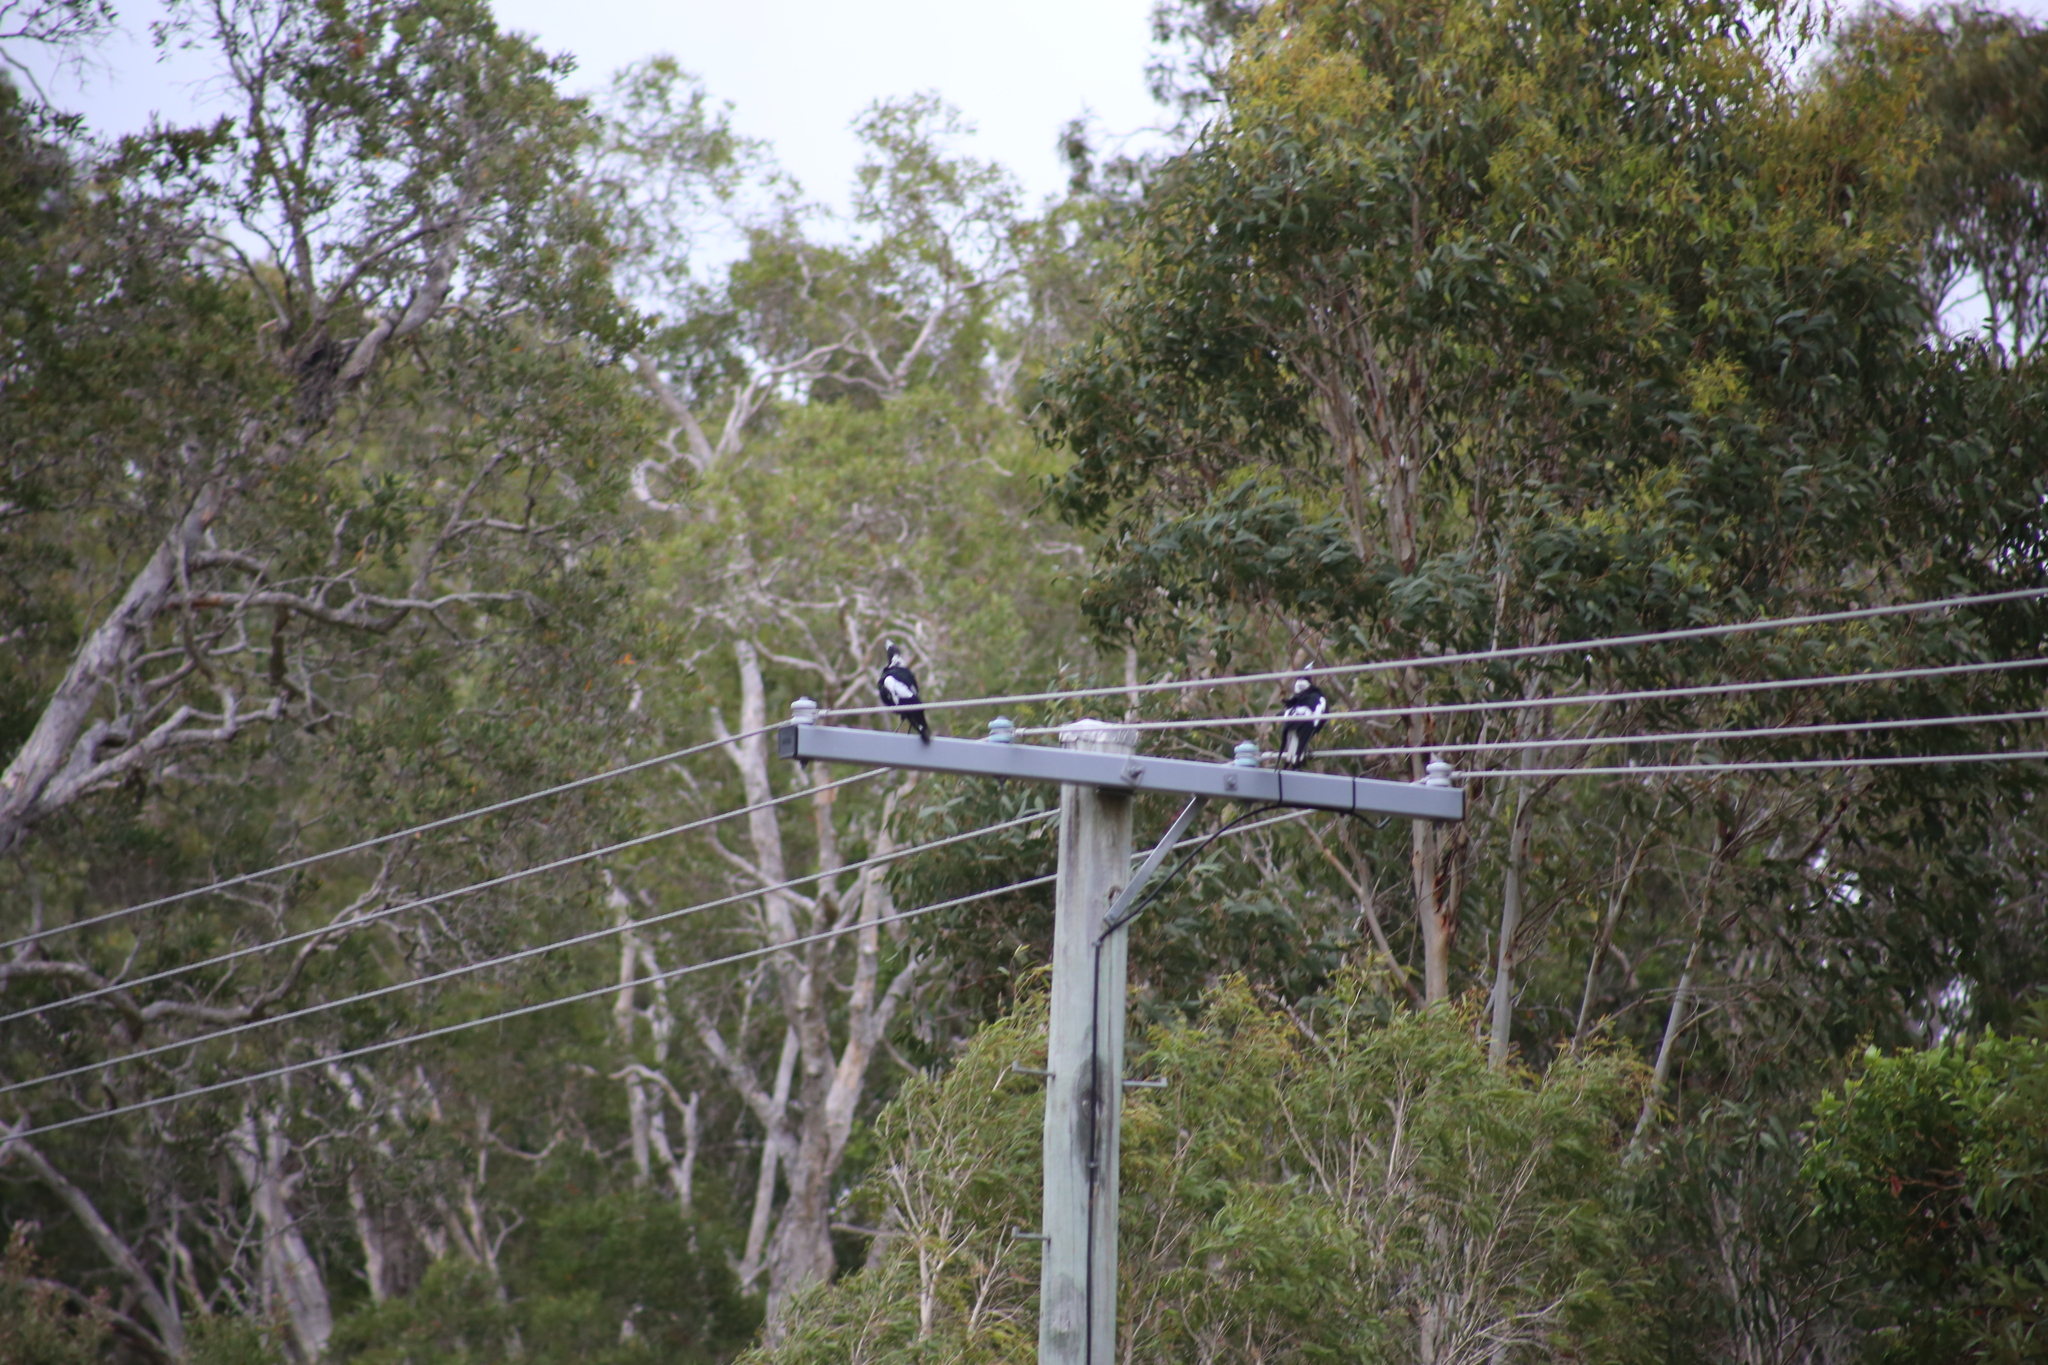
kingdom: Animalia
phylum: Chordata
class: Aves
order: Passeriformes
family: Cracticidae
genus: Gymnorhina
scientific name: Gymnorhina tibicen
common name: Australian magpie
